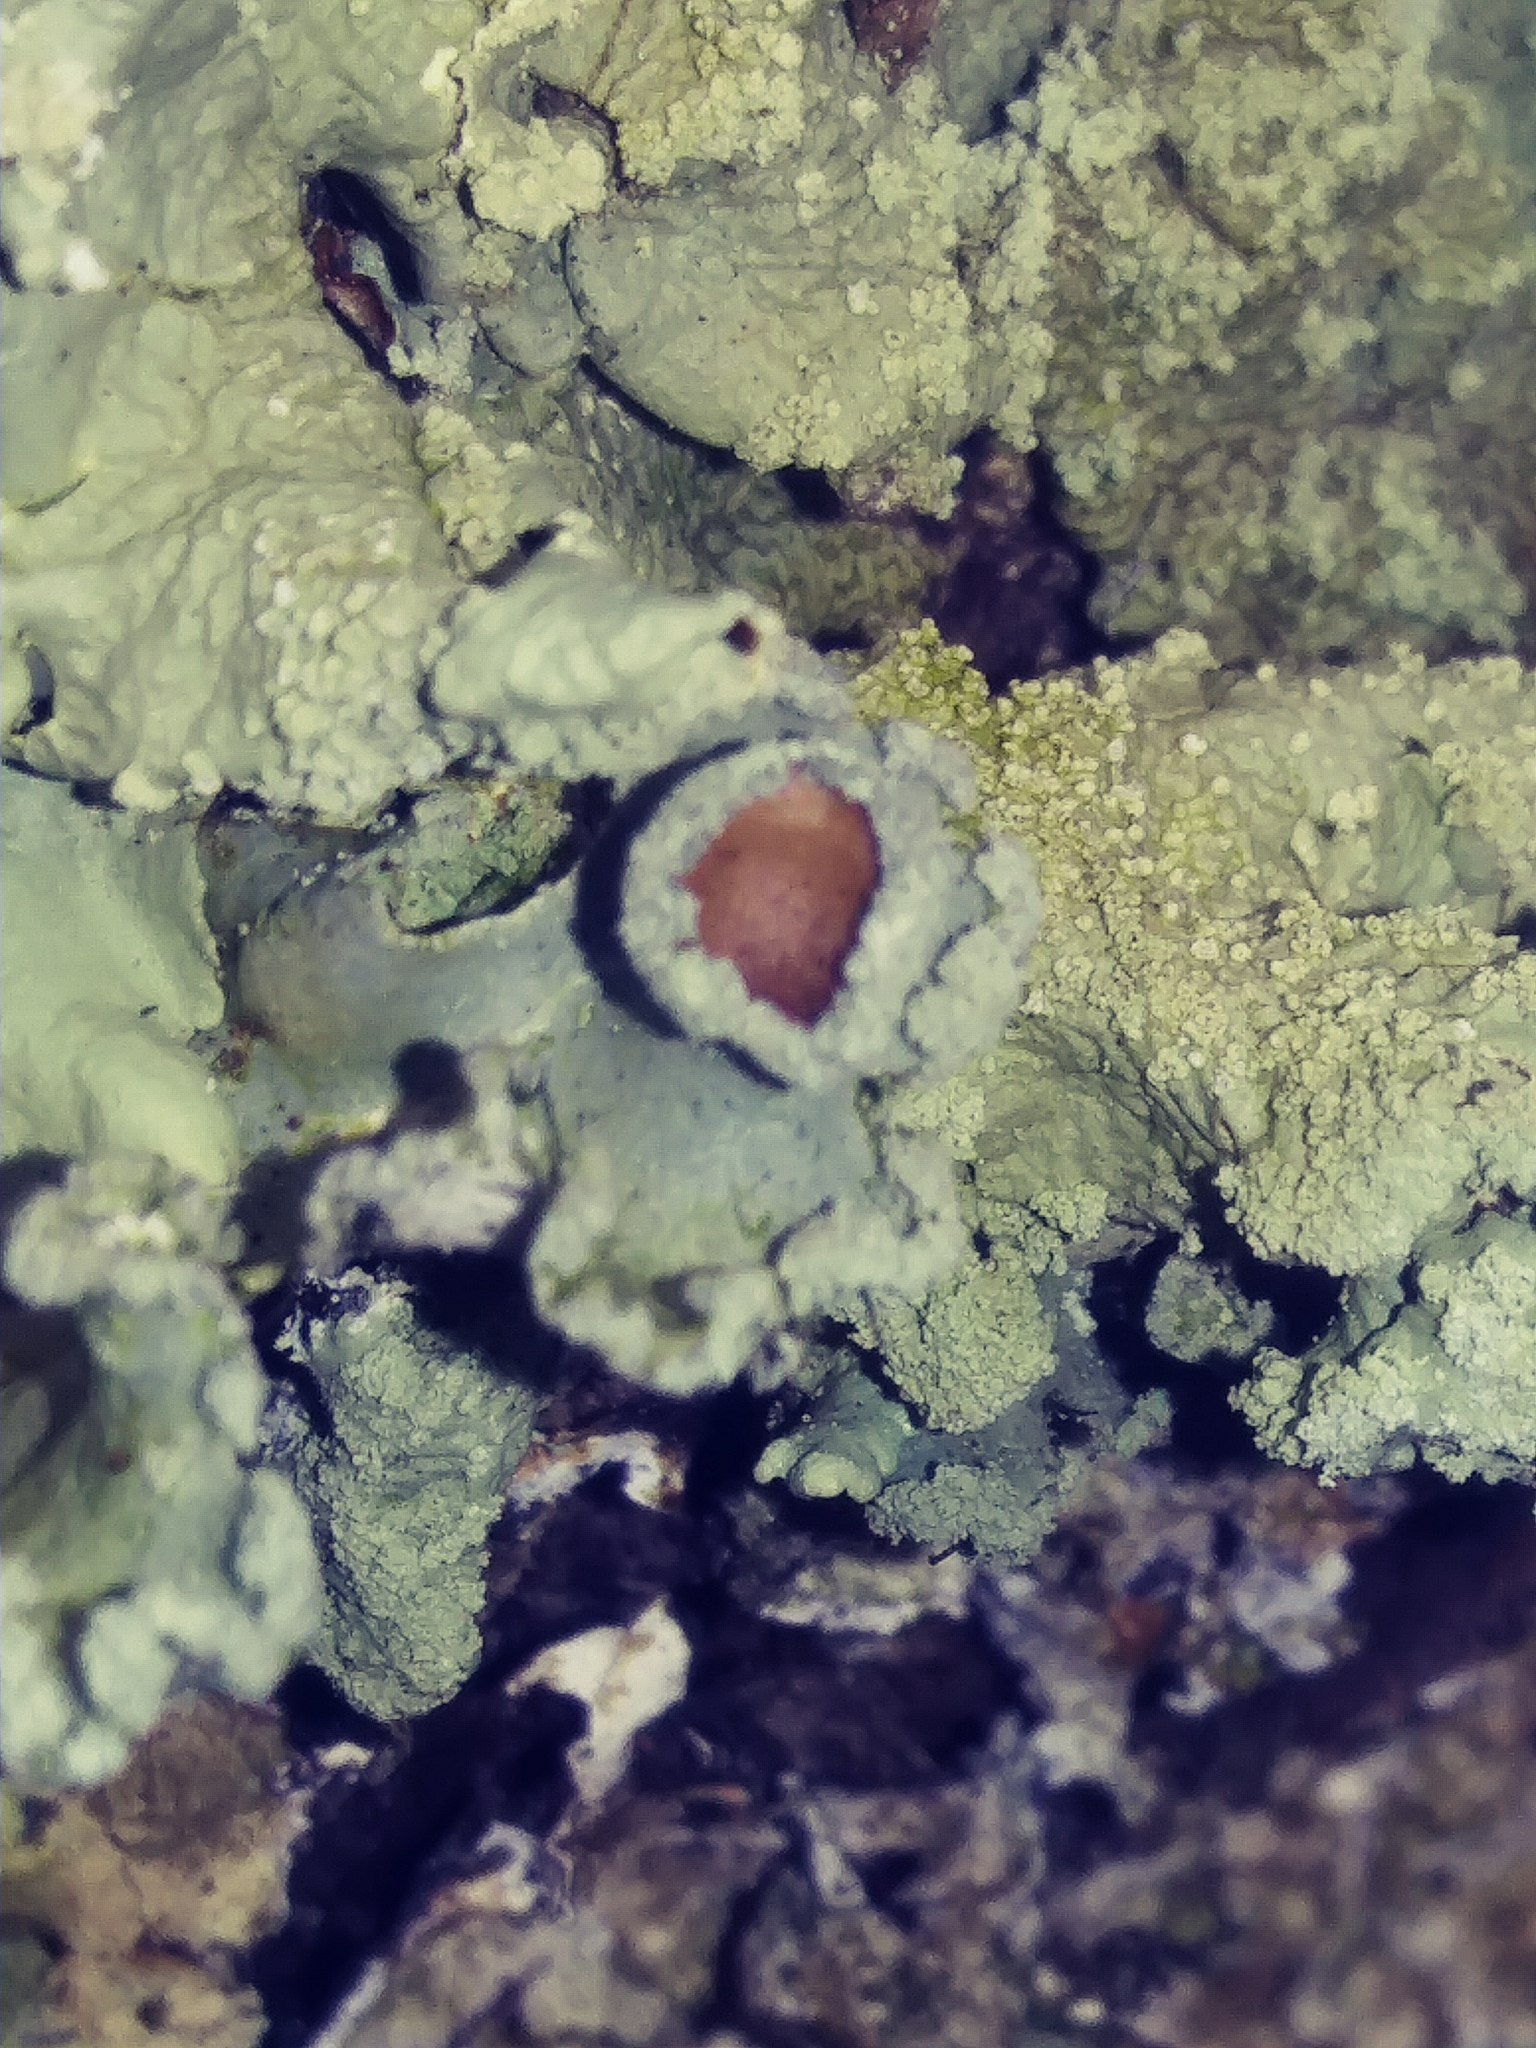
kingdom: Fungi
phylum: Ascomycota
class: Lecanoromycetes
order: Lecanorales
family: Parmeliaceae
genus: Flavoparmelia
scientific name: Flavoparmelia caperata
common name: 40-mile per hour lichen
